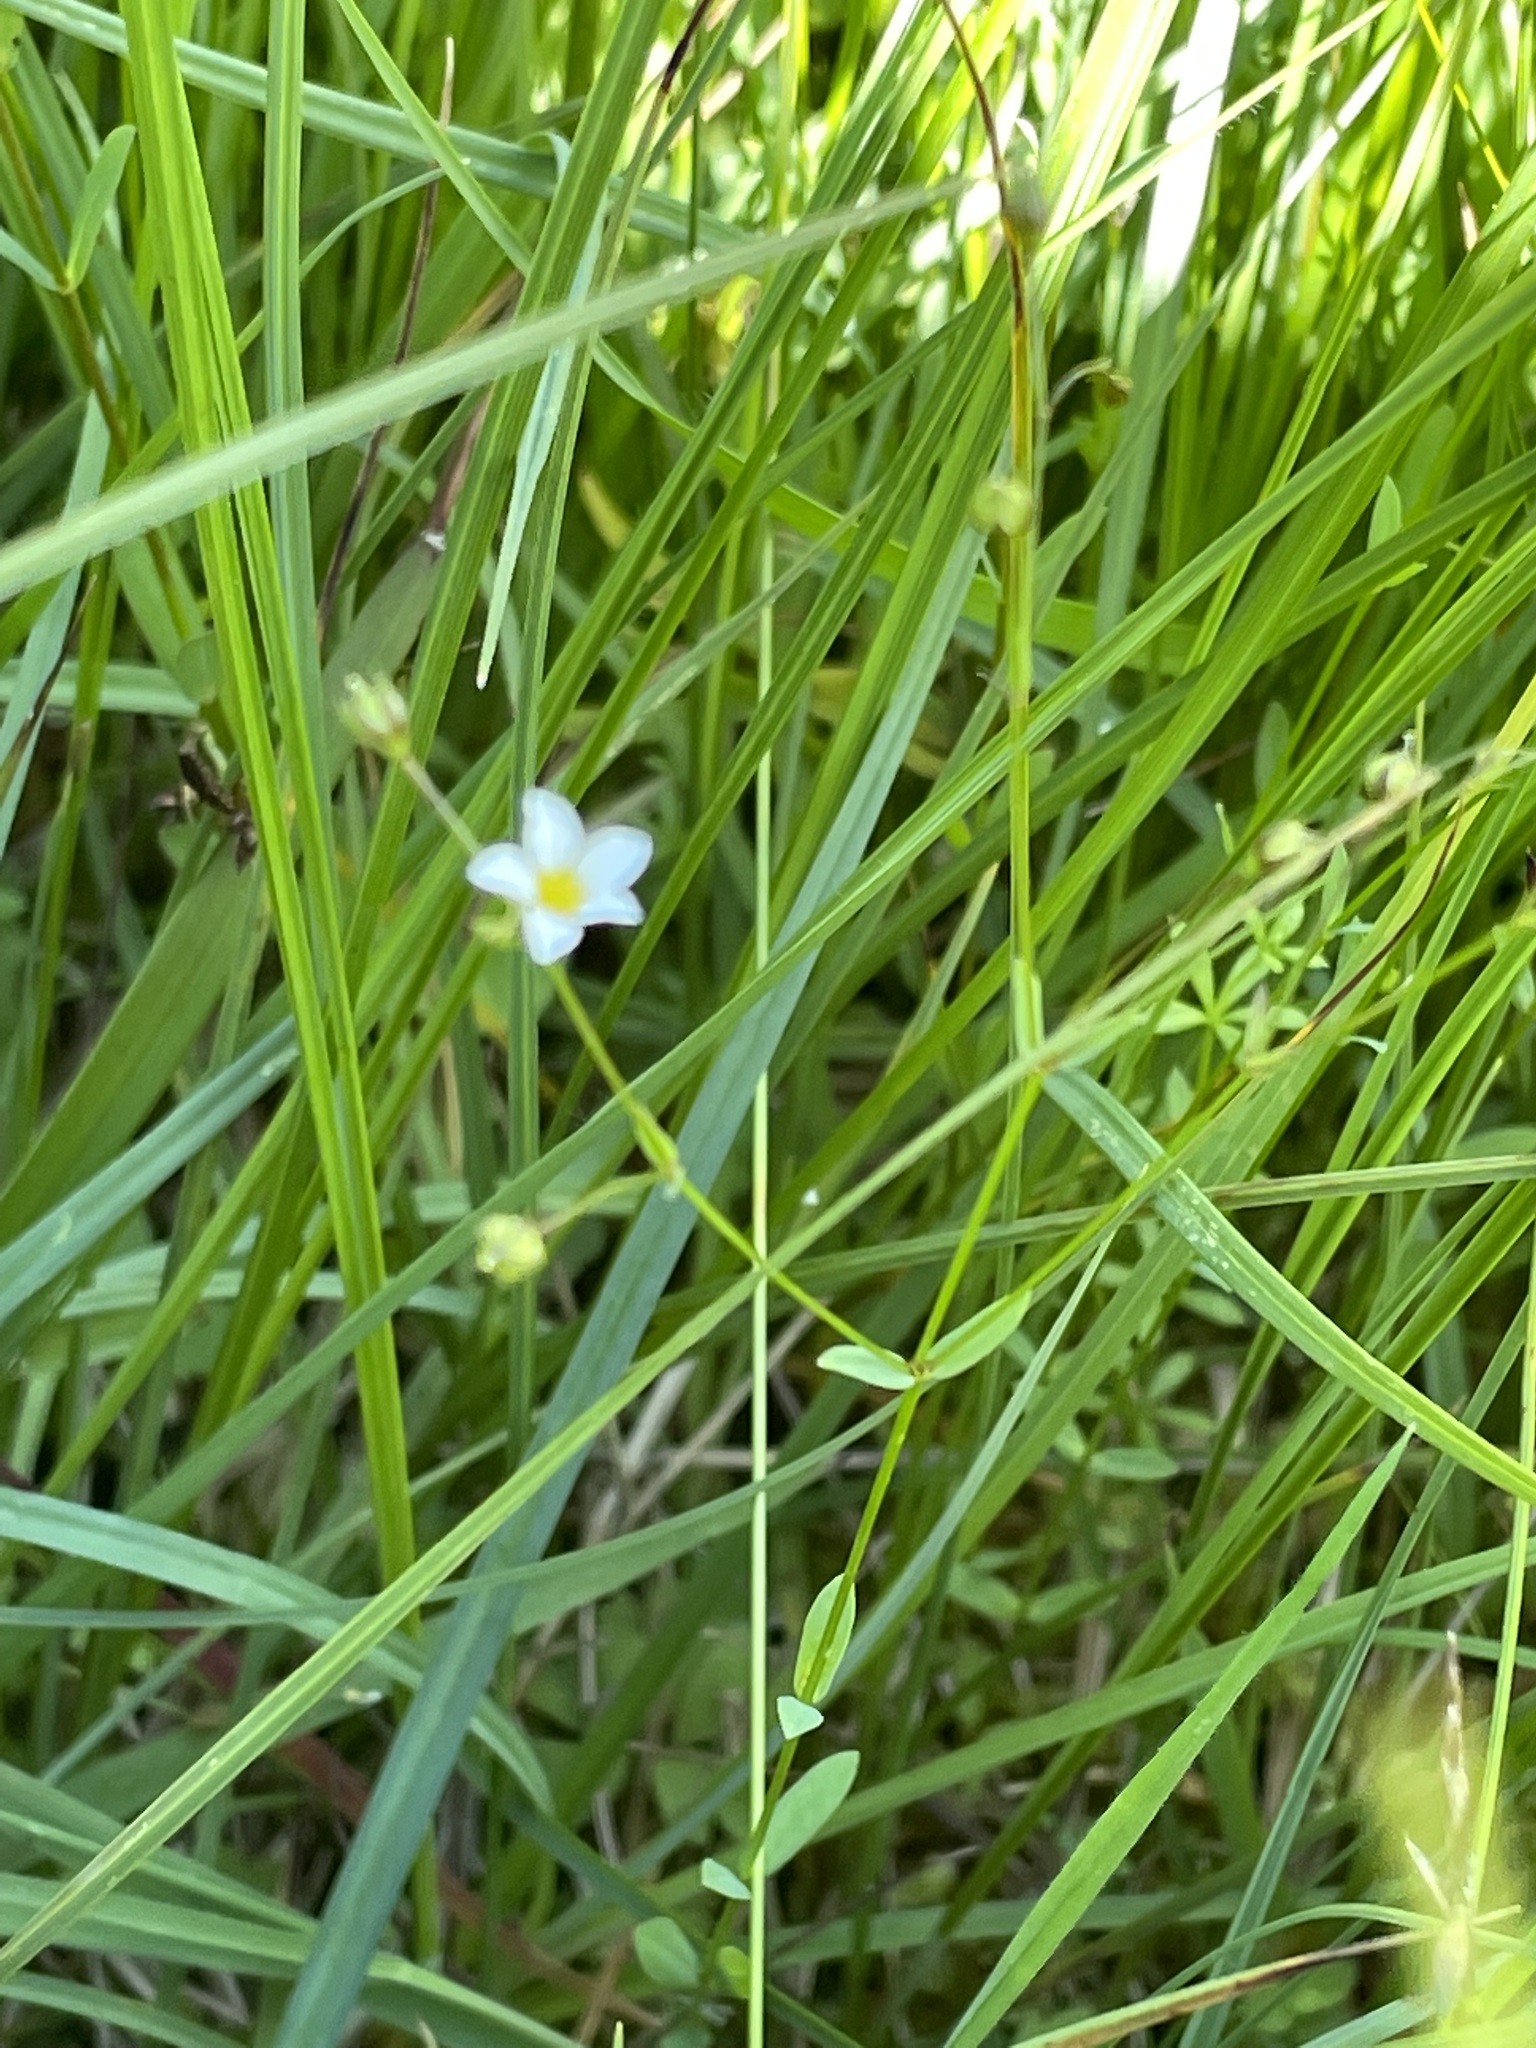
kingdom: Plantae
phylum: Tracheophyta
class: Magnoliopsida
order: Malpighiales
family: Linaceae
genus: Linum
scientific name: Linum catharticum
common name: Fairy flax
